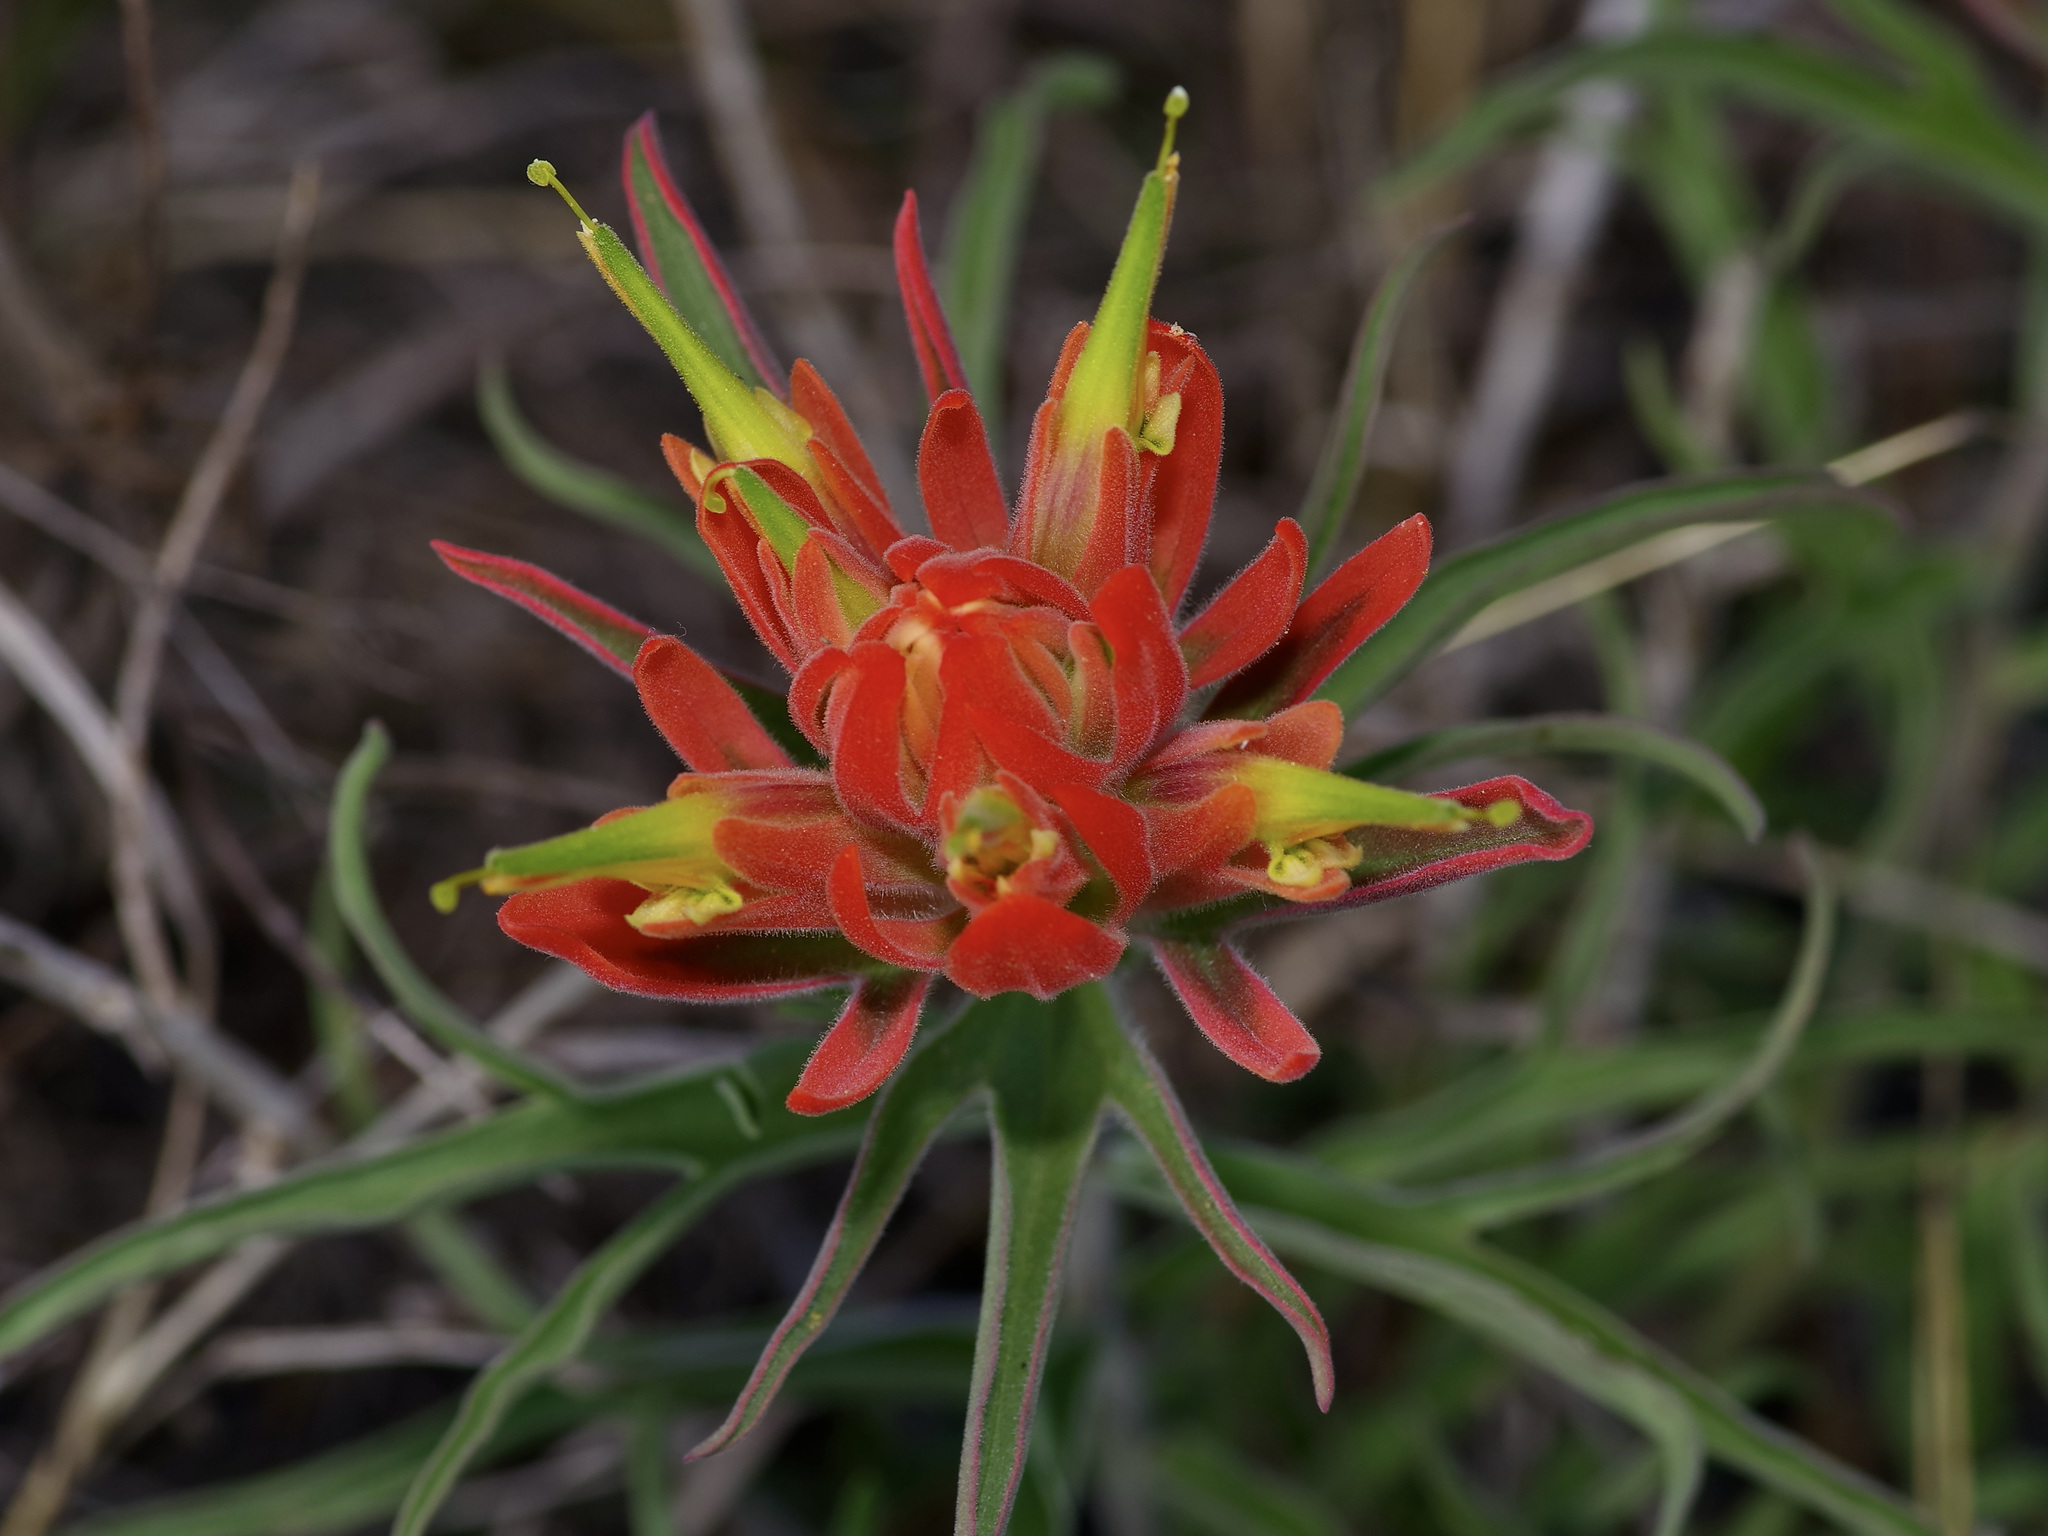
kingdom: Plantae
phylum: Tracheophyta
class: Magnoliopsida
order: Lamiales
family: Orobanchaceae
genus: Castilleja
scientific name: Castilleja lindheimeri
